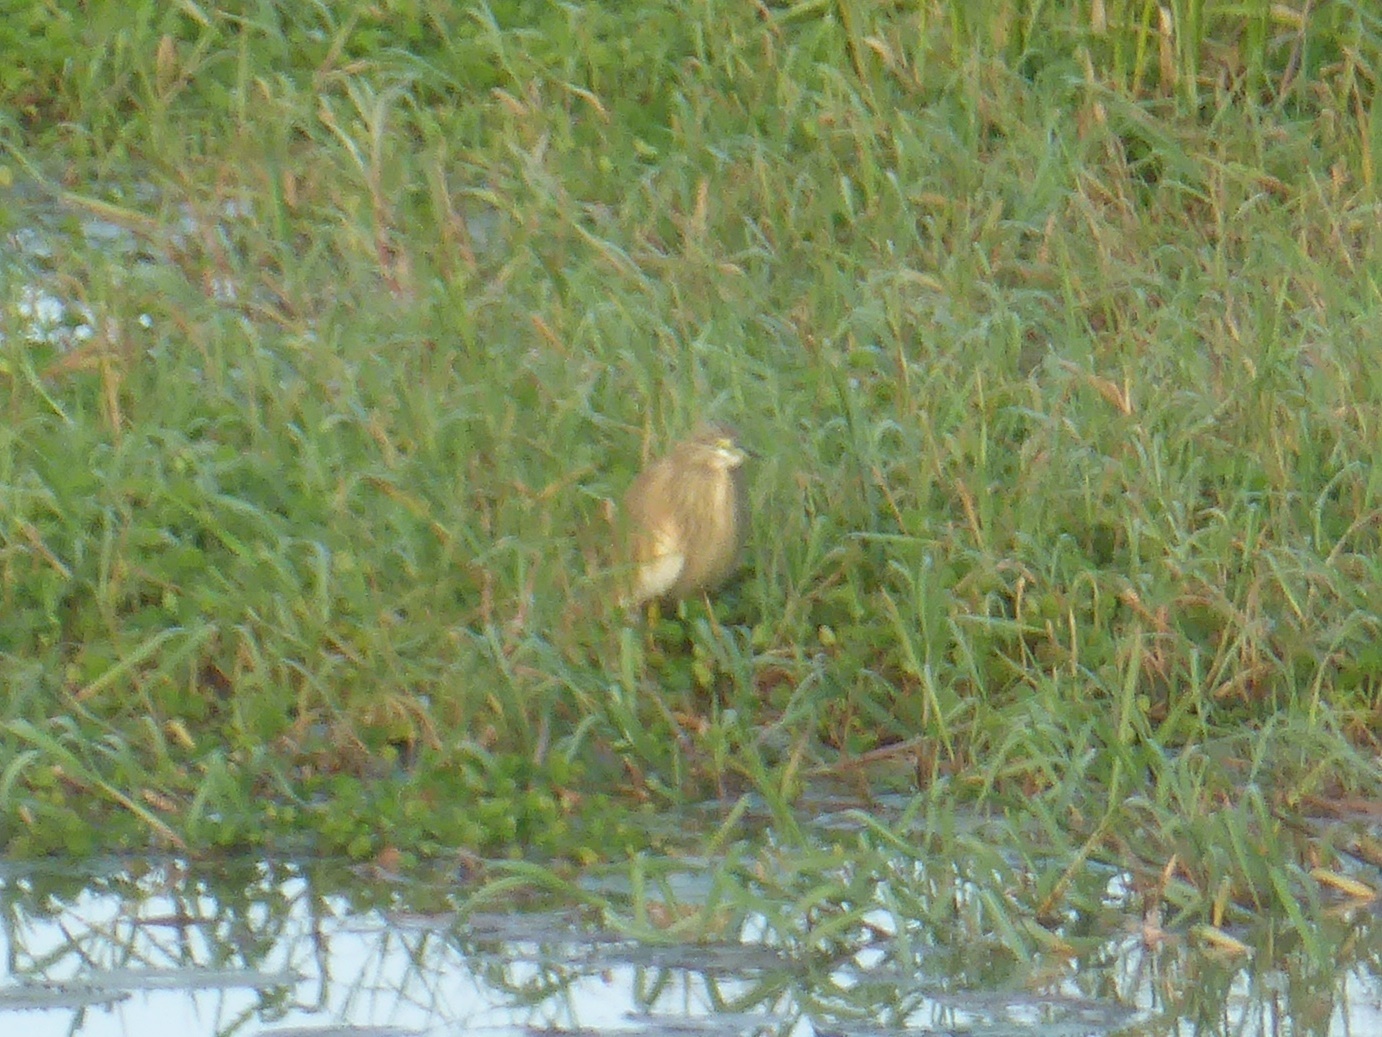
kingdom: Animalia
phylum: Chordata
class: Aves
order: Pelecaniformes
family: Ardeidae
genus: Ardeola
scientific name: Ardeola ralloides
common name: Squacco heron
